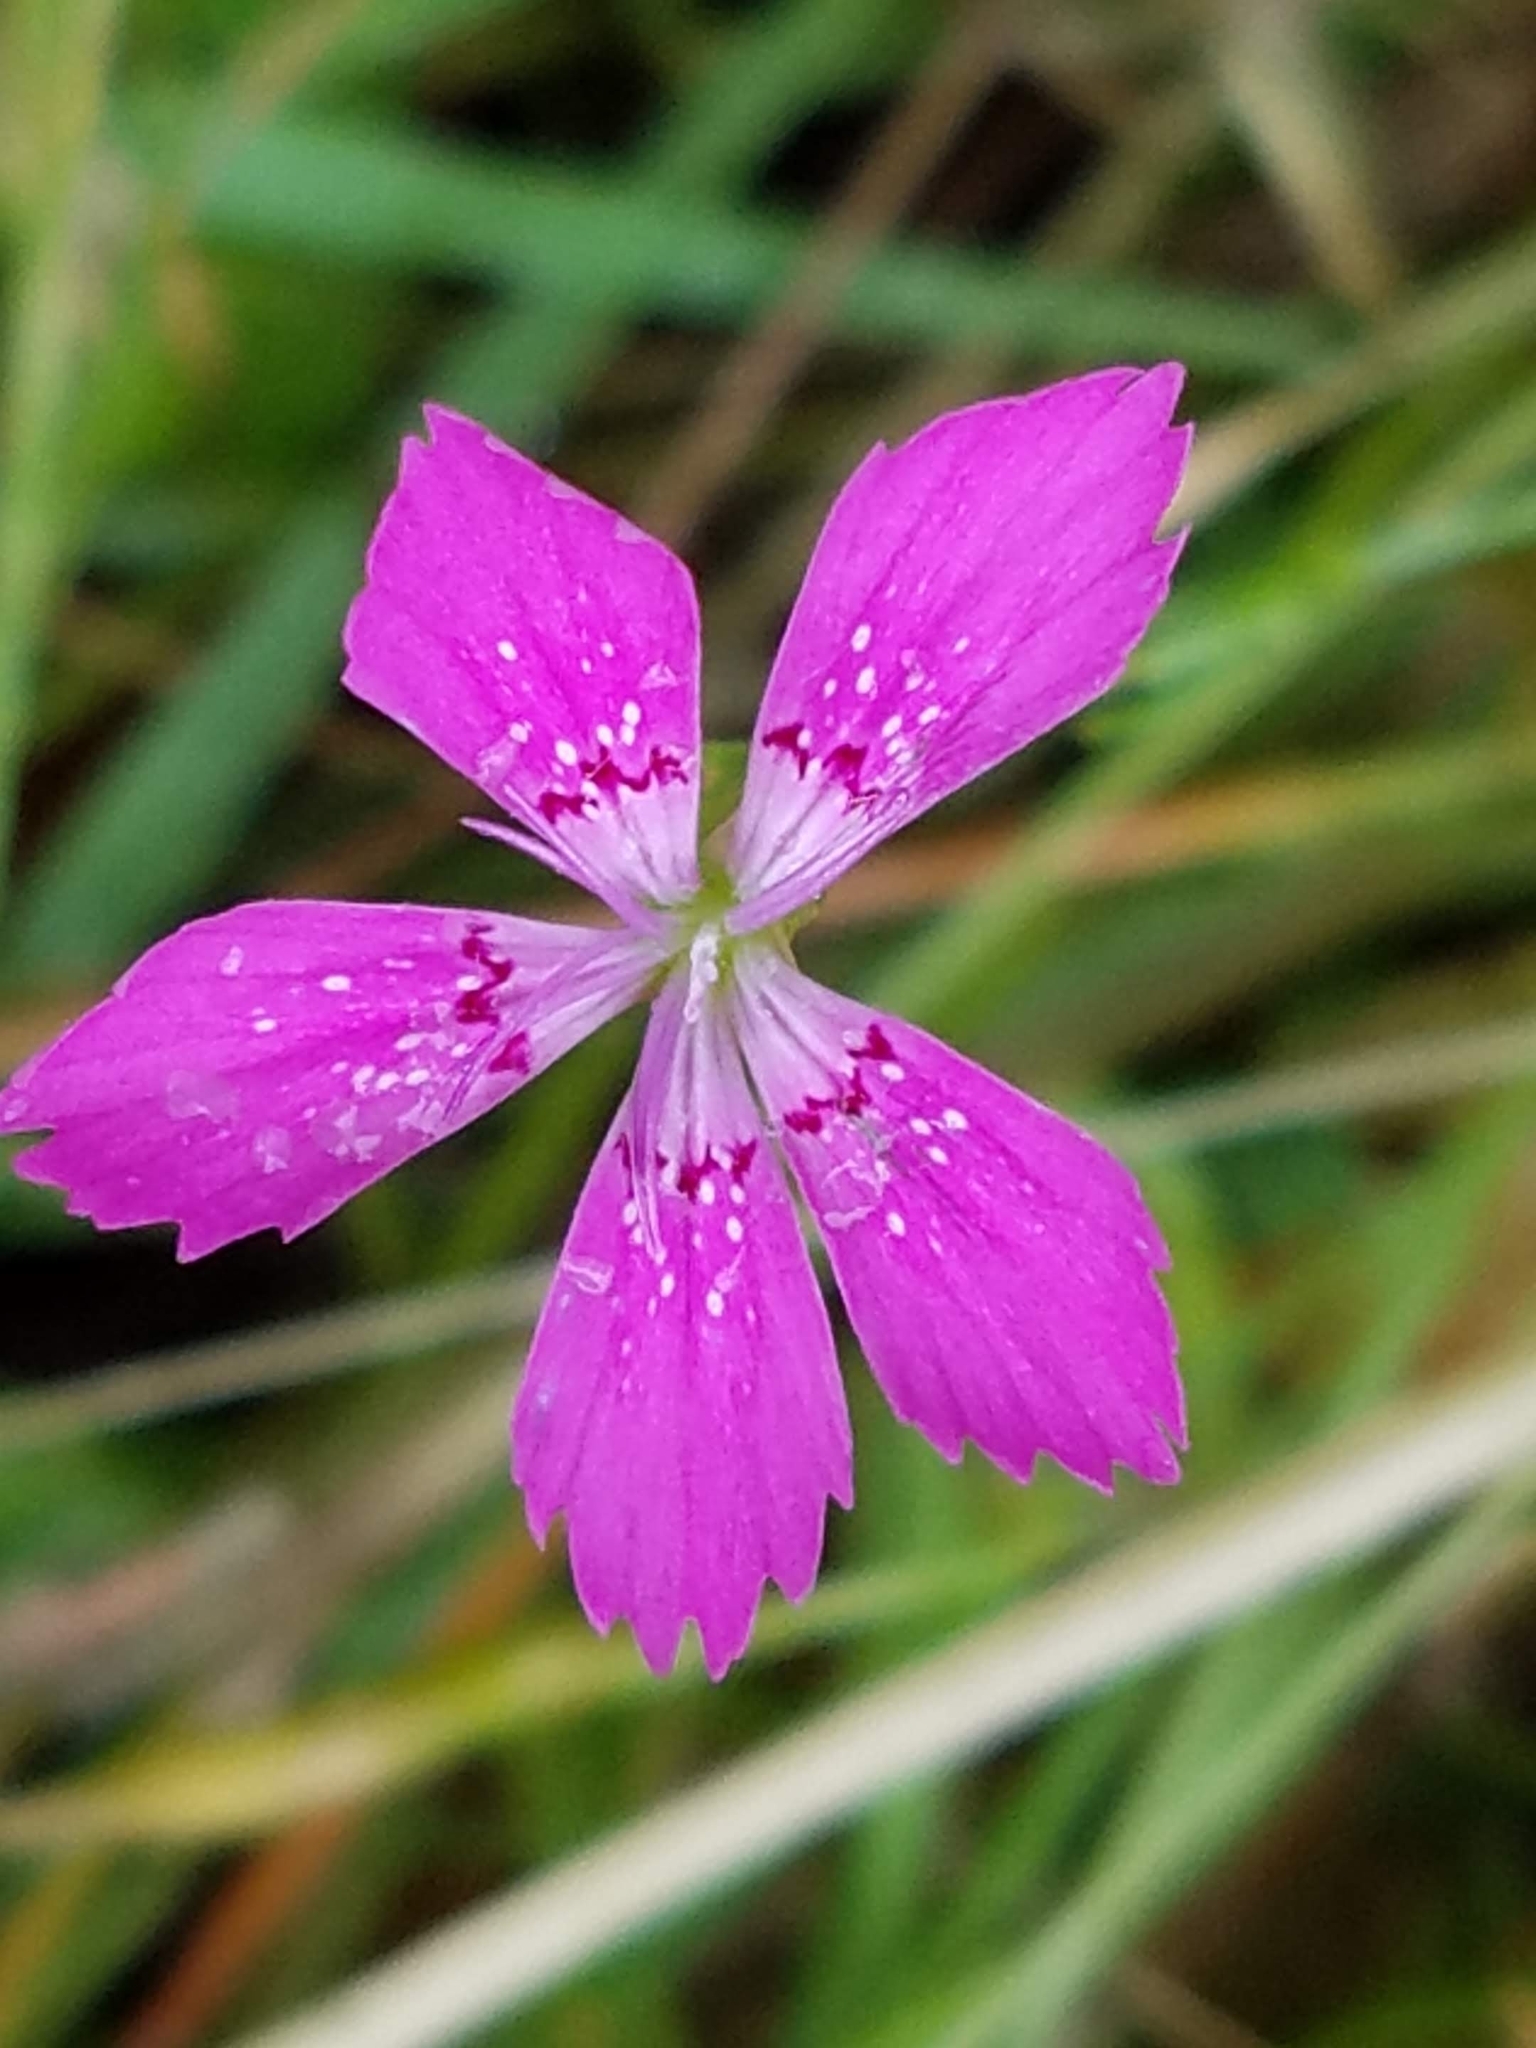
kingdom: Plantae
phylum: Tracheophyta
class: Magnoliopsida
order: Caryophyllales
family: Caryophyllaceae
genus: Dianthus
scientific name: Dianthus armeria
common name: Deptford pink
